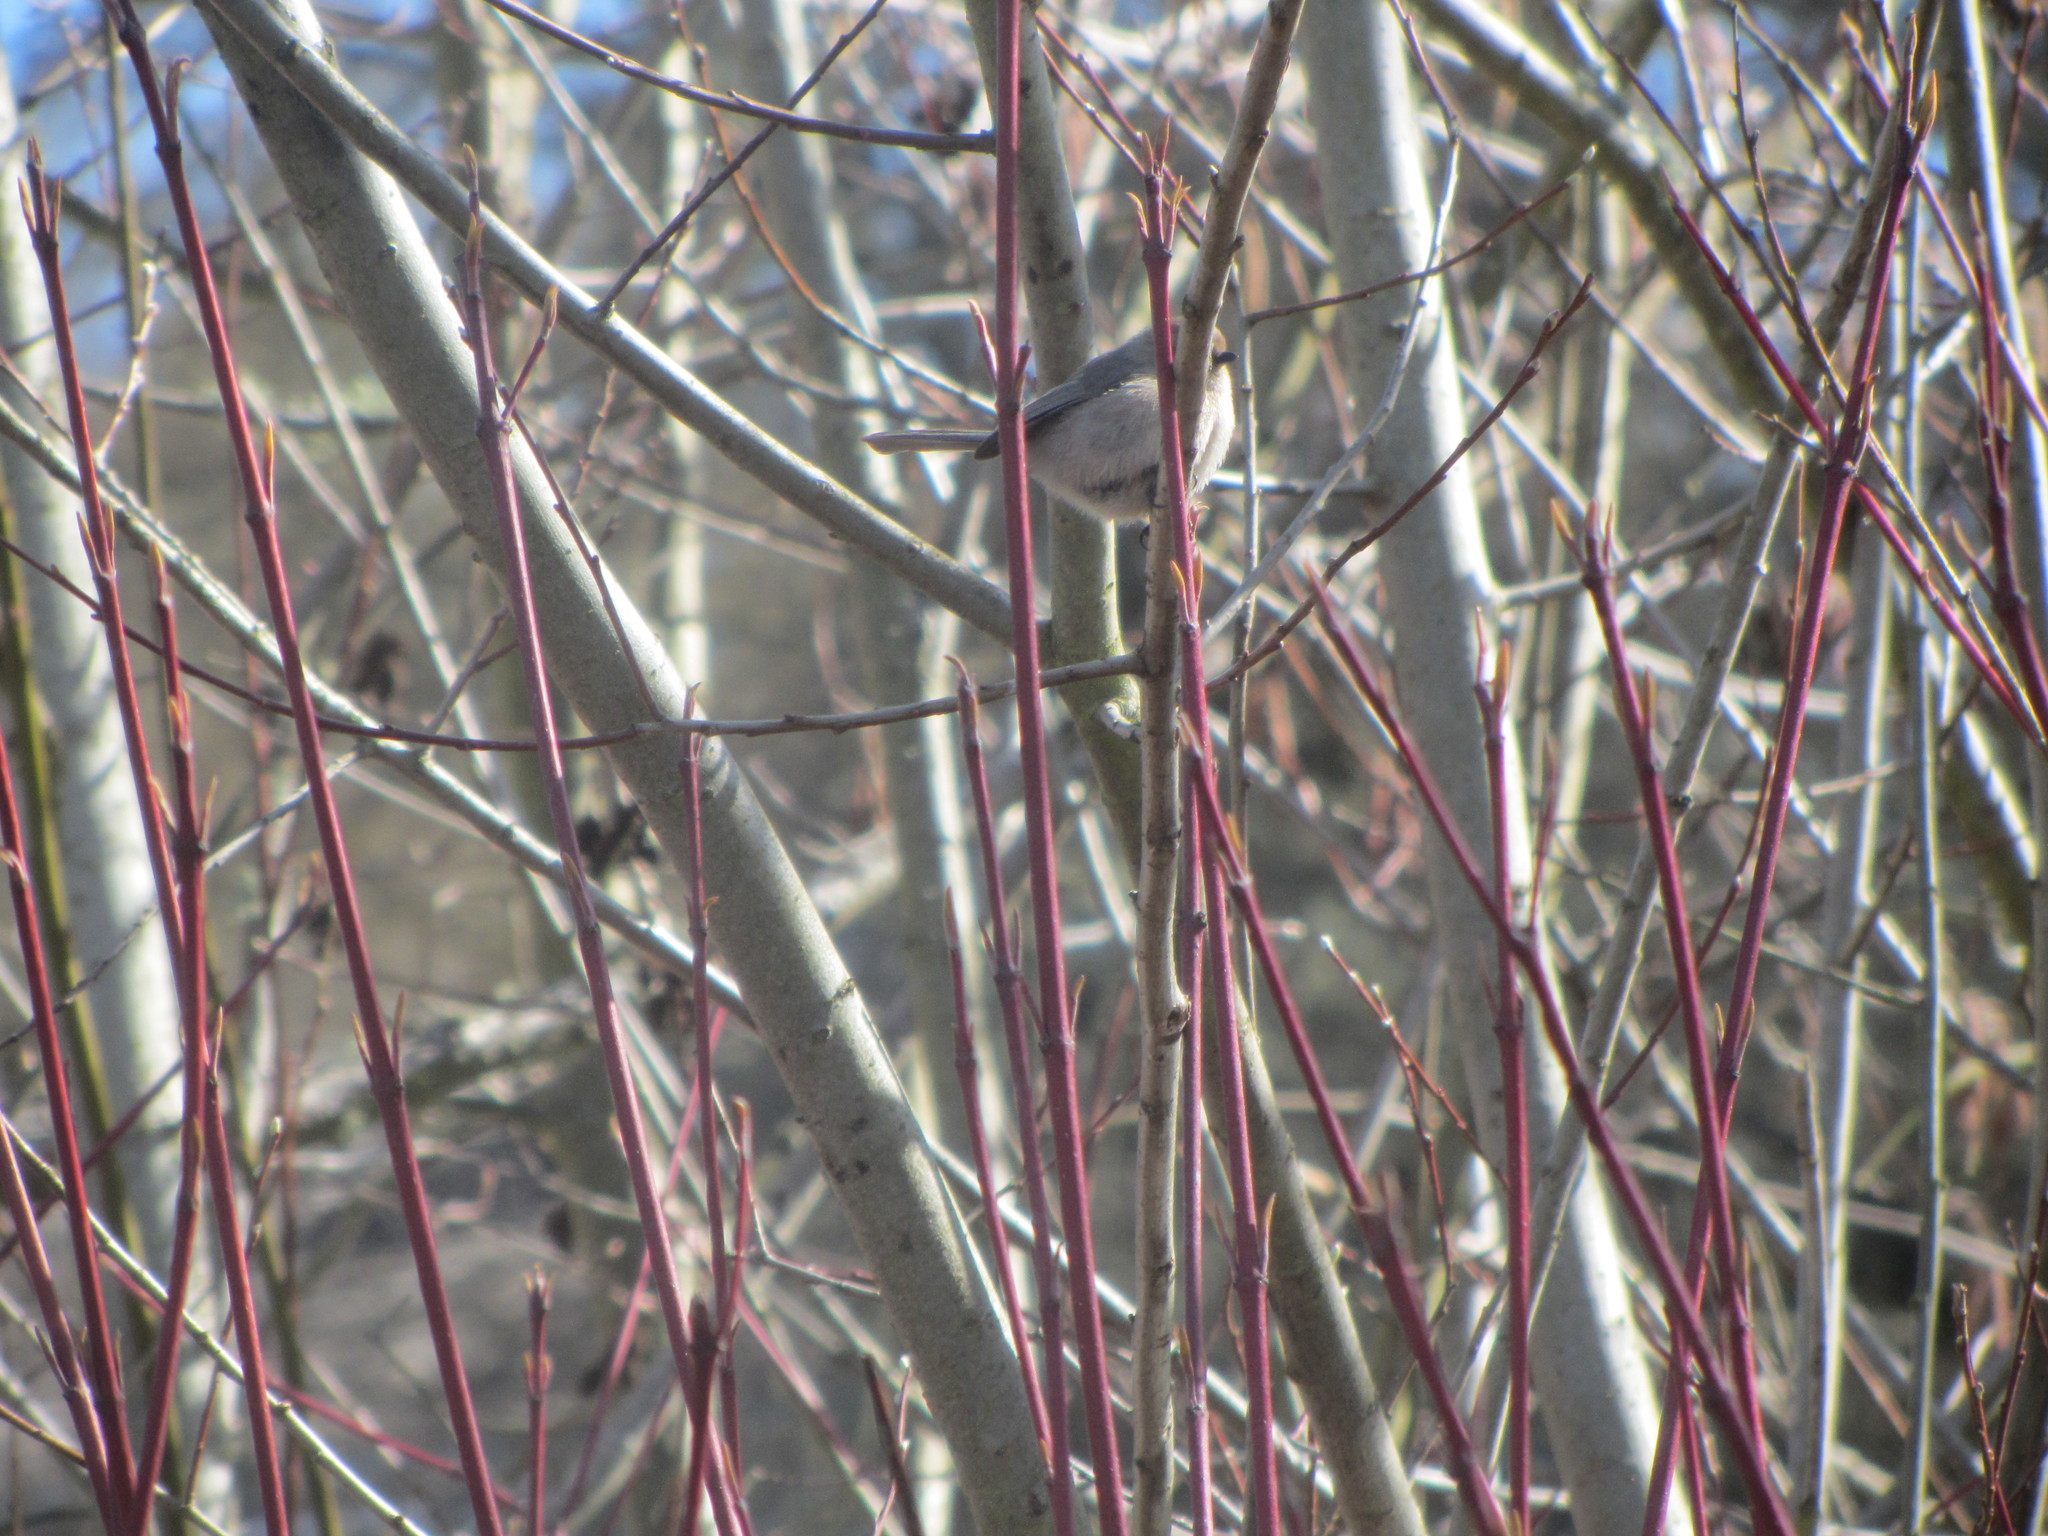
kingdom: Animalia
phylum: Chordata
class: Aves
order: Passeriformes
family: Aegithalidae
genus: Psaltriparus
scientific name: Psaltriparus minimus
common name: American bushtit
